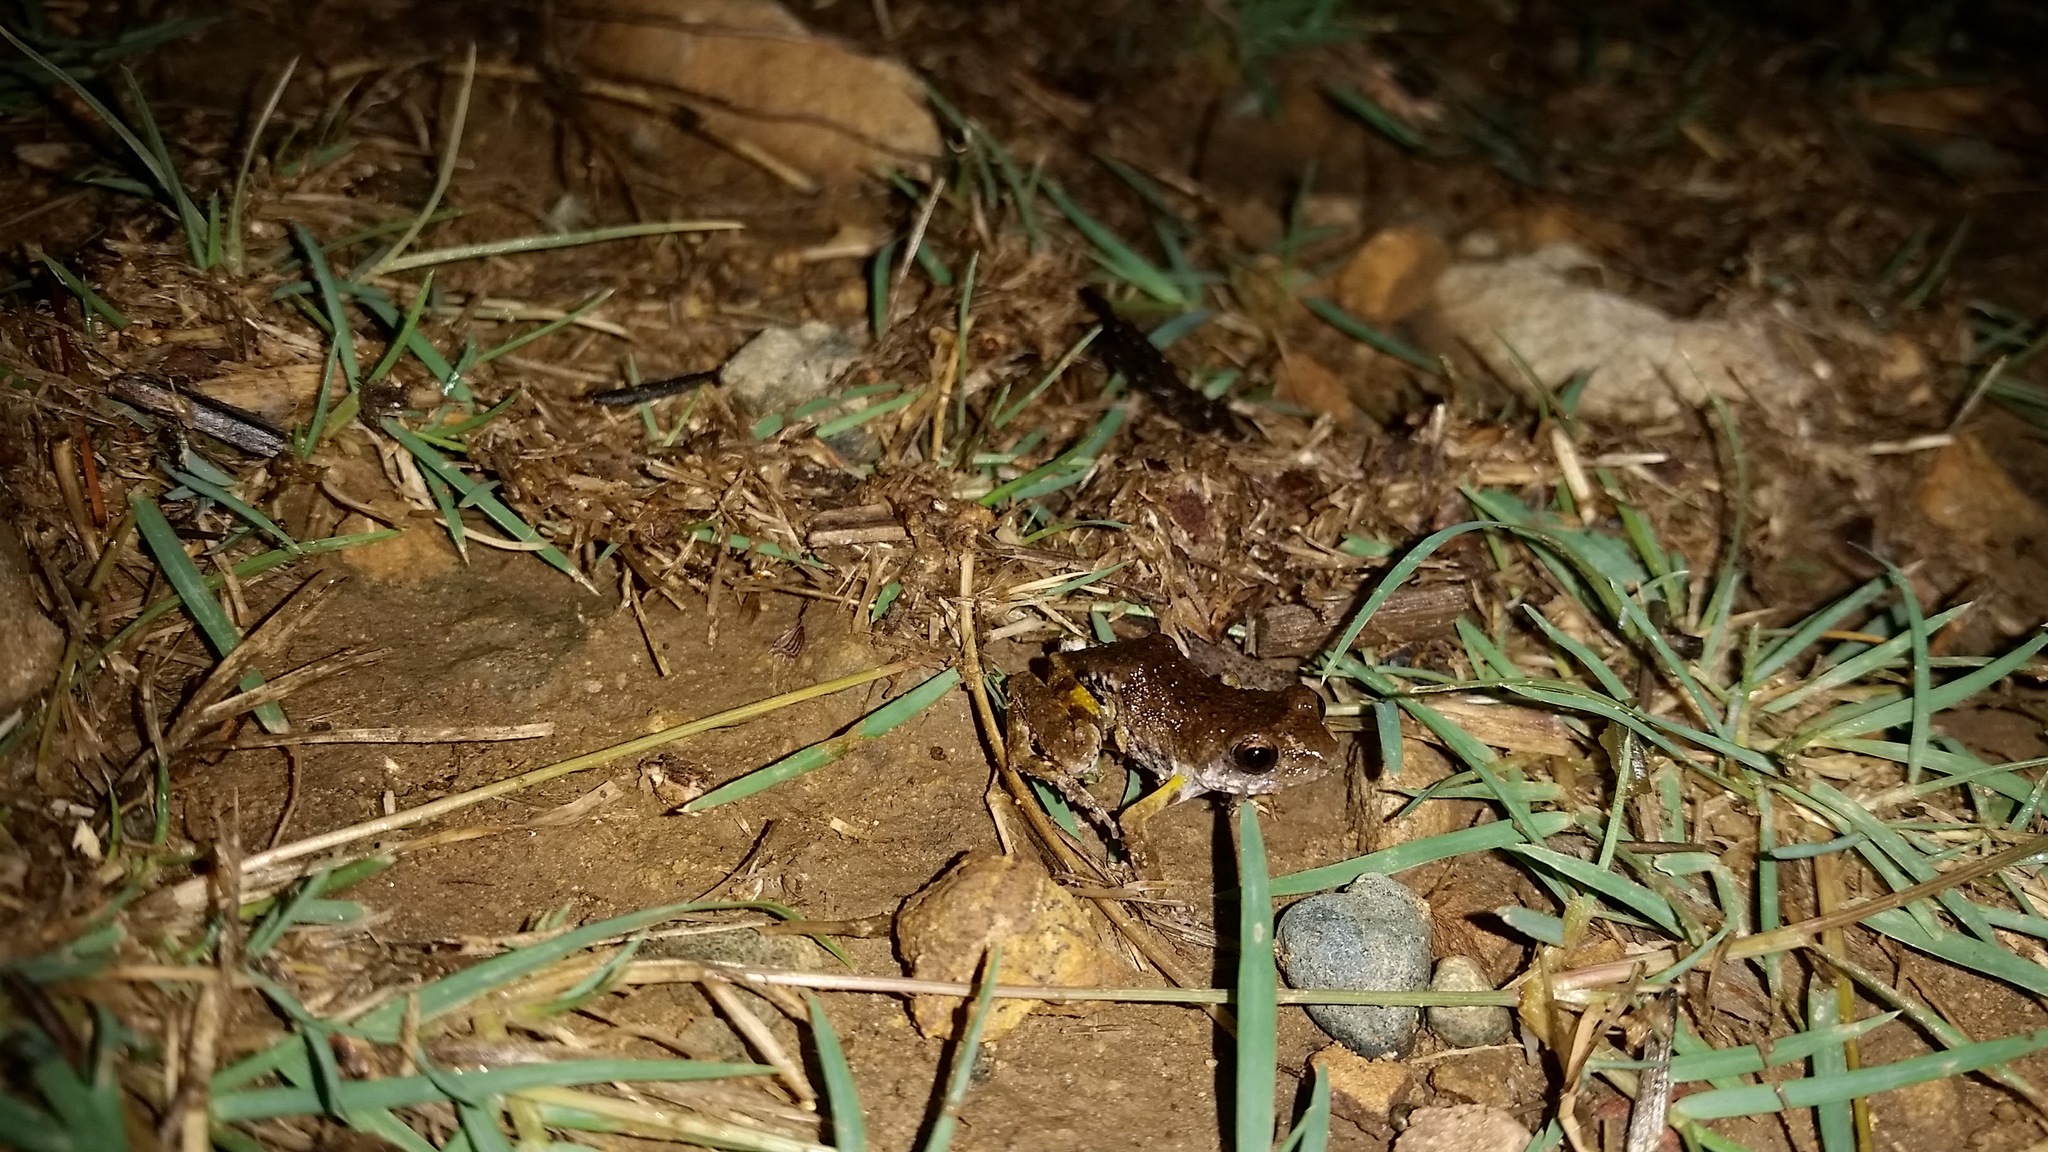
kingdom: Animalia
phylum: Chordata
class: Amphibia
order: Anura
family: Eleutherodactylidae
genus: Eleutherodactylus
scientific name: Eleutherodactylus nitidus
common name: Peters' shiny peeping frog
